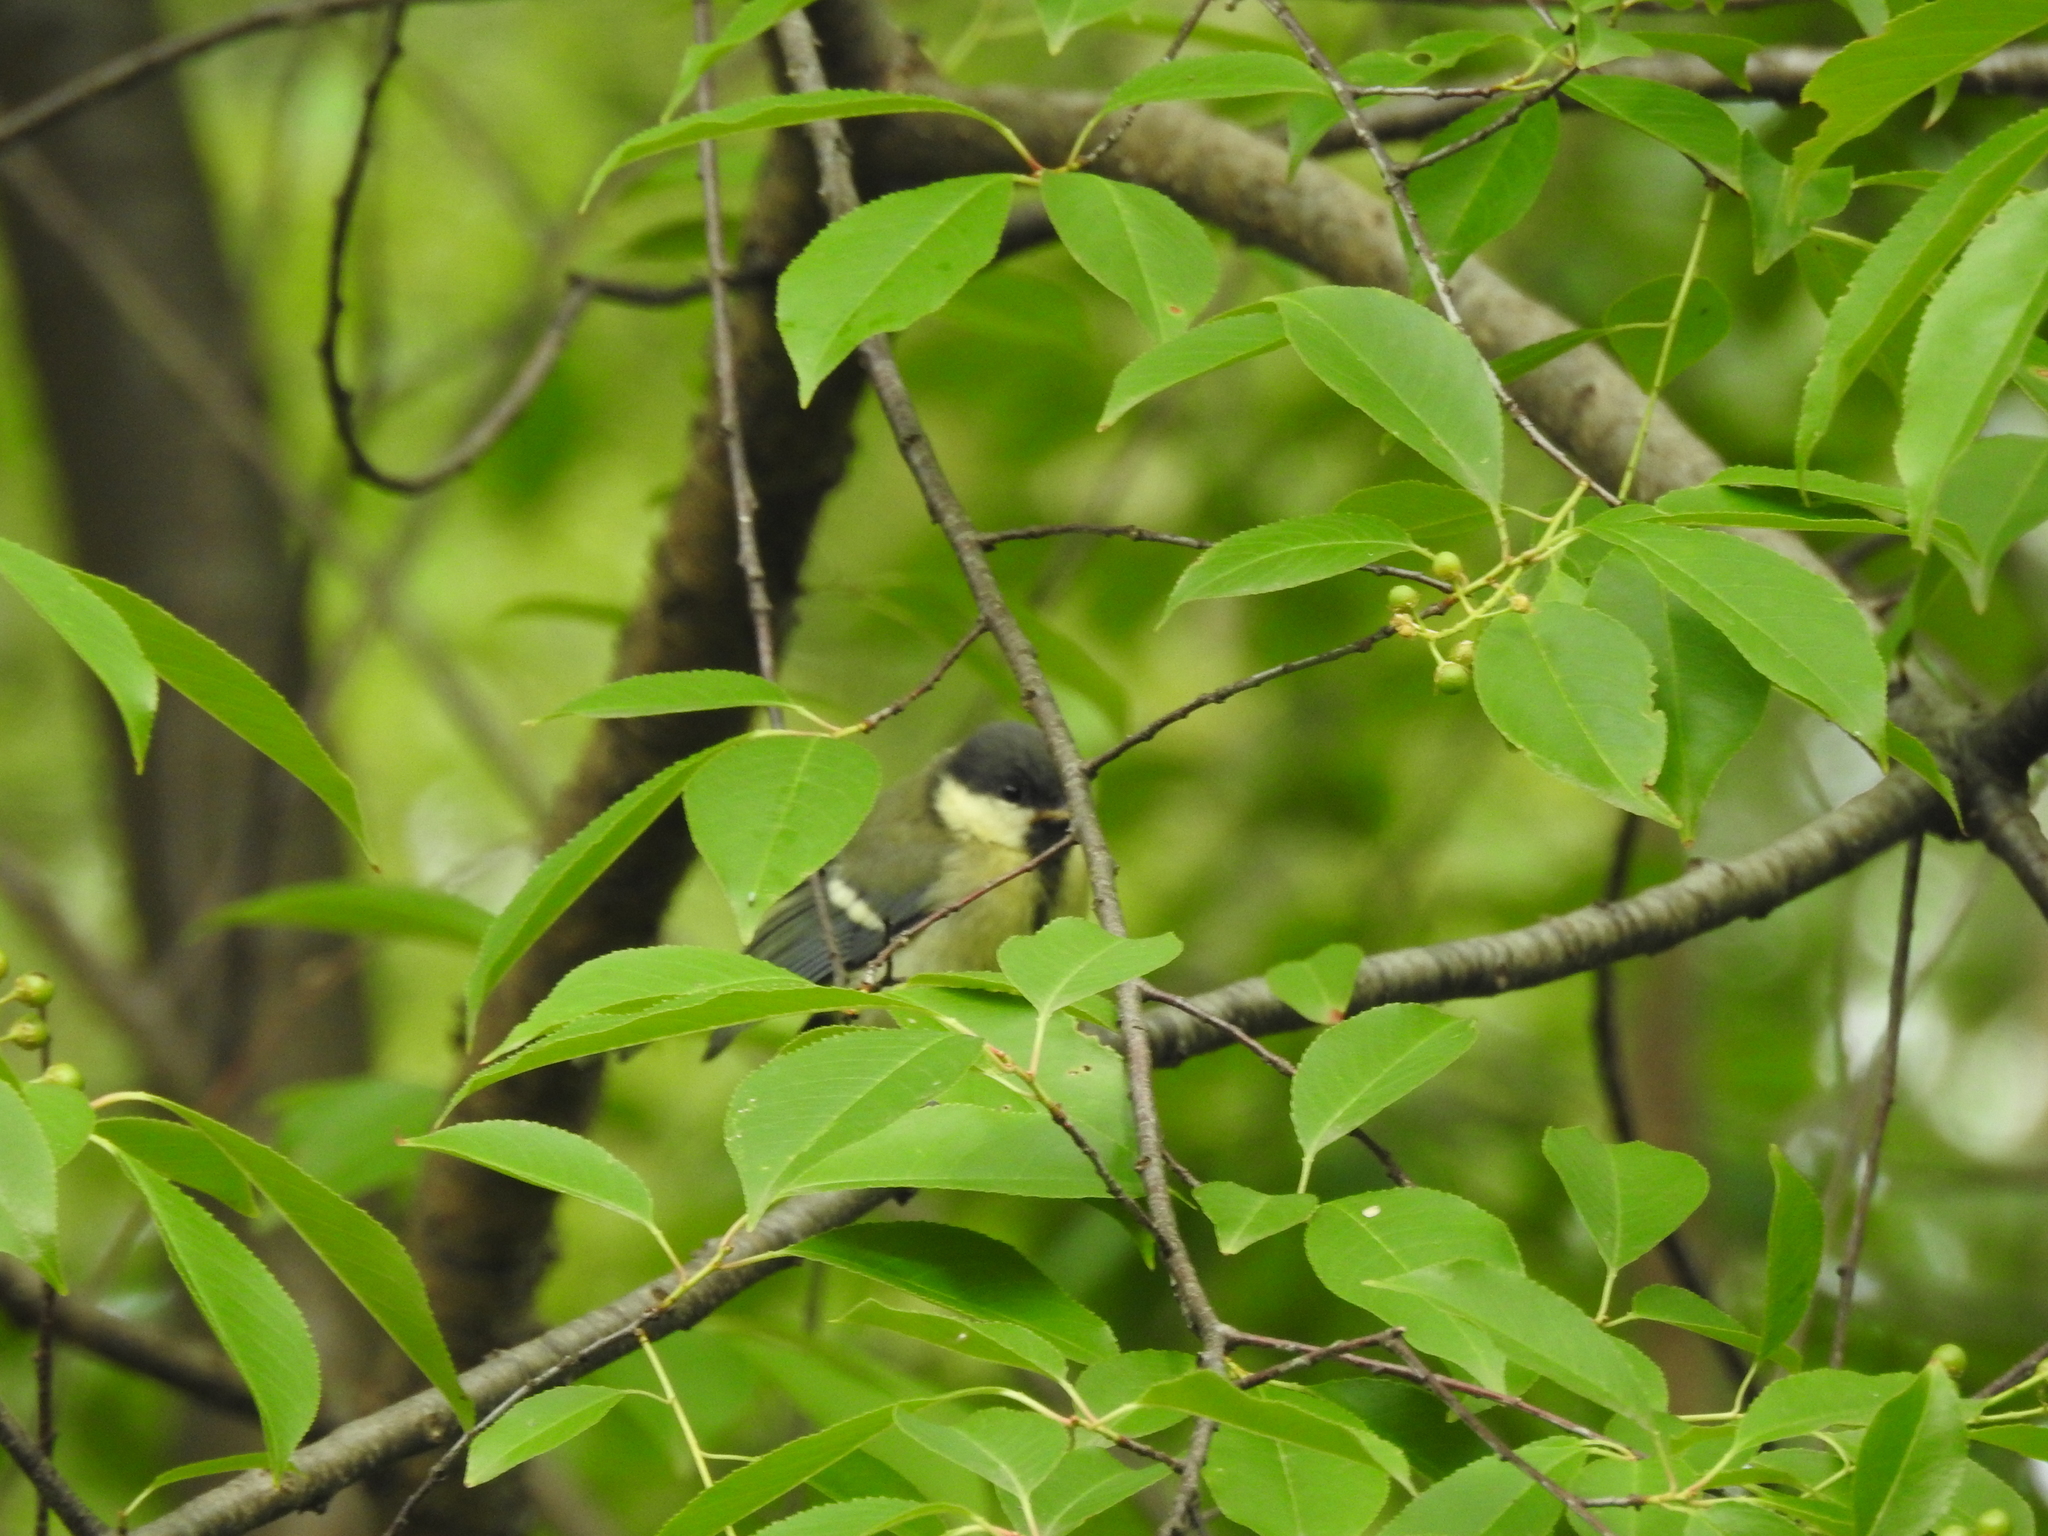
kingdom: Animalia
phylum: Chordata
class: Aves
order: Passeriformes
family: Paridae
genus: Parus
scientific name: Parus major
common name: Great tit
